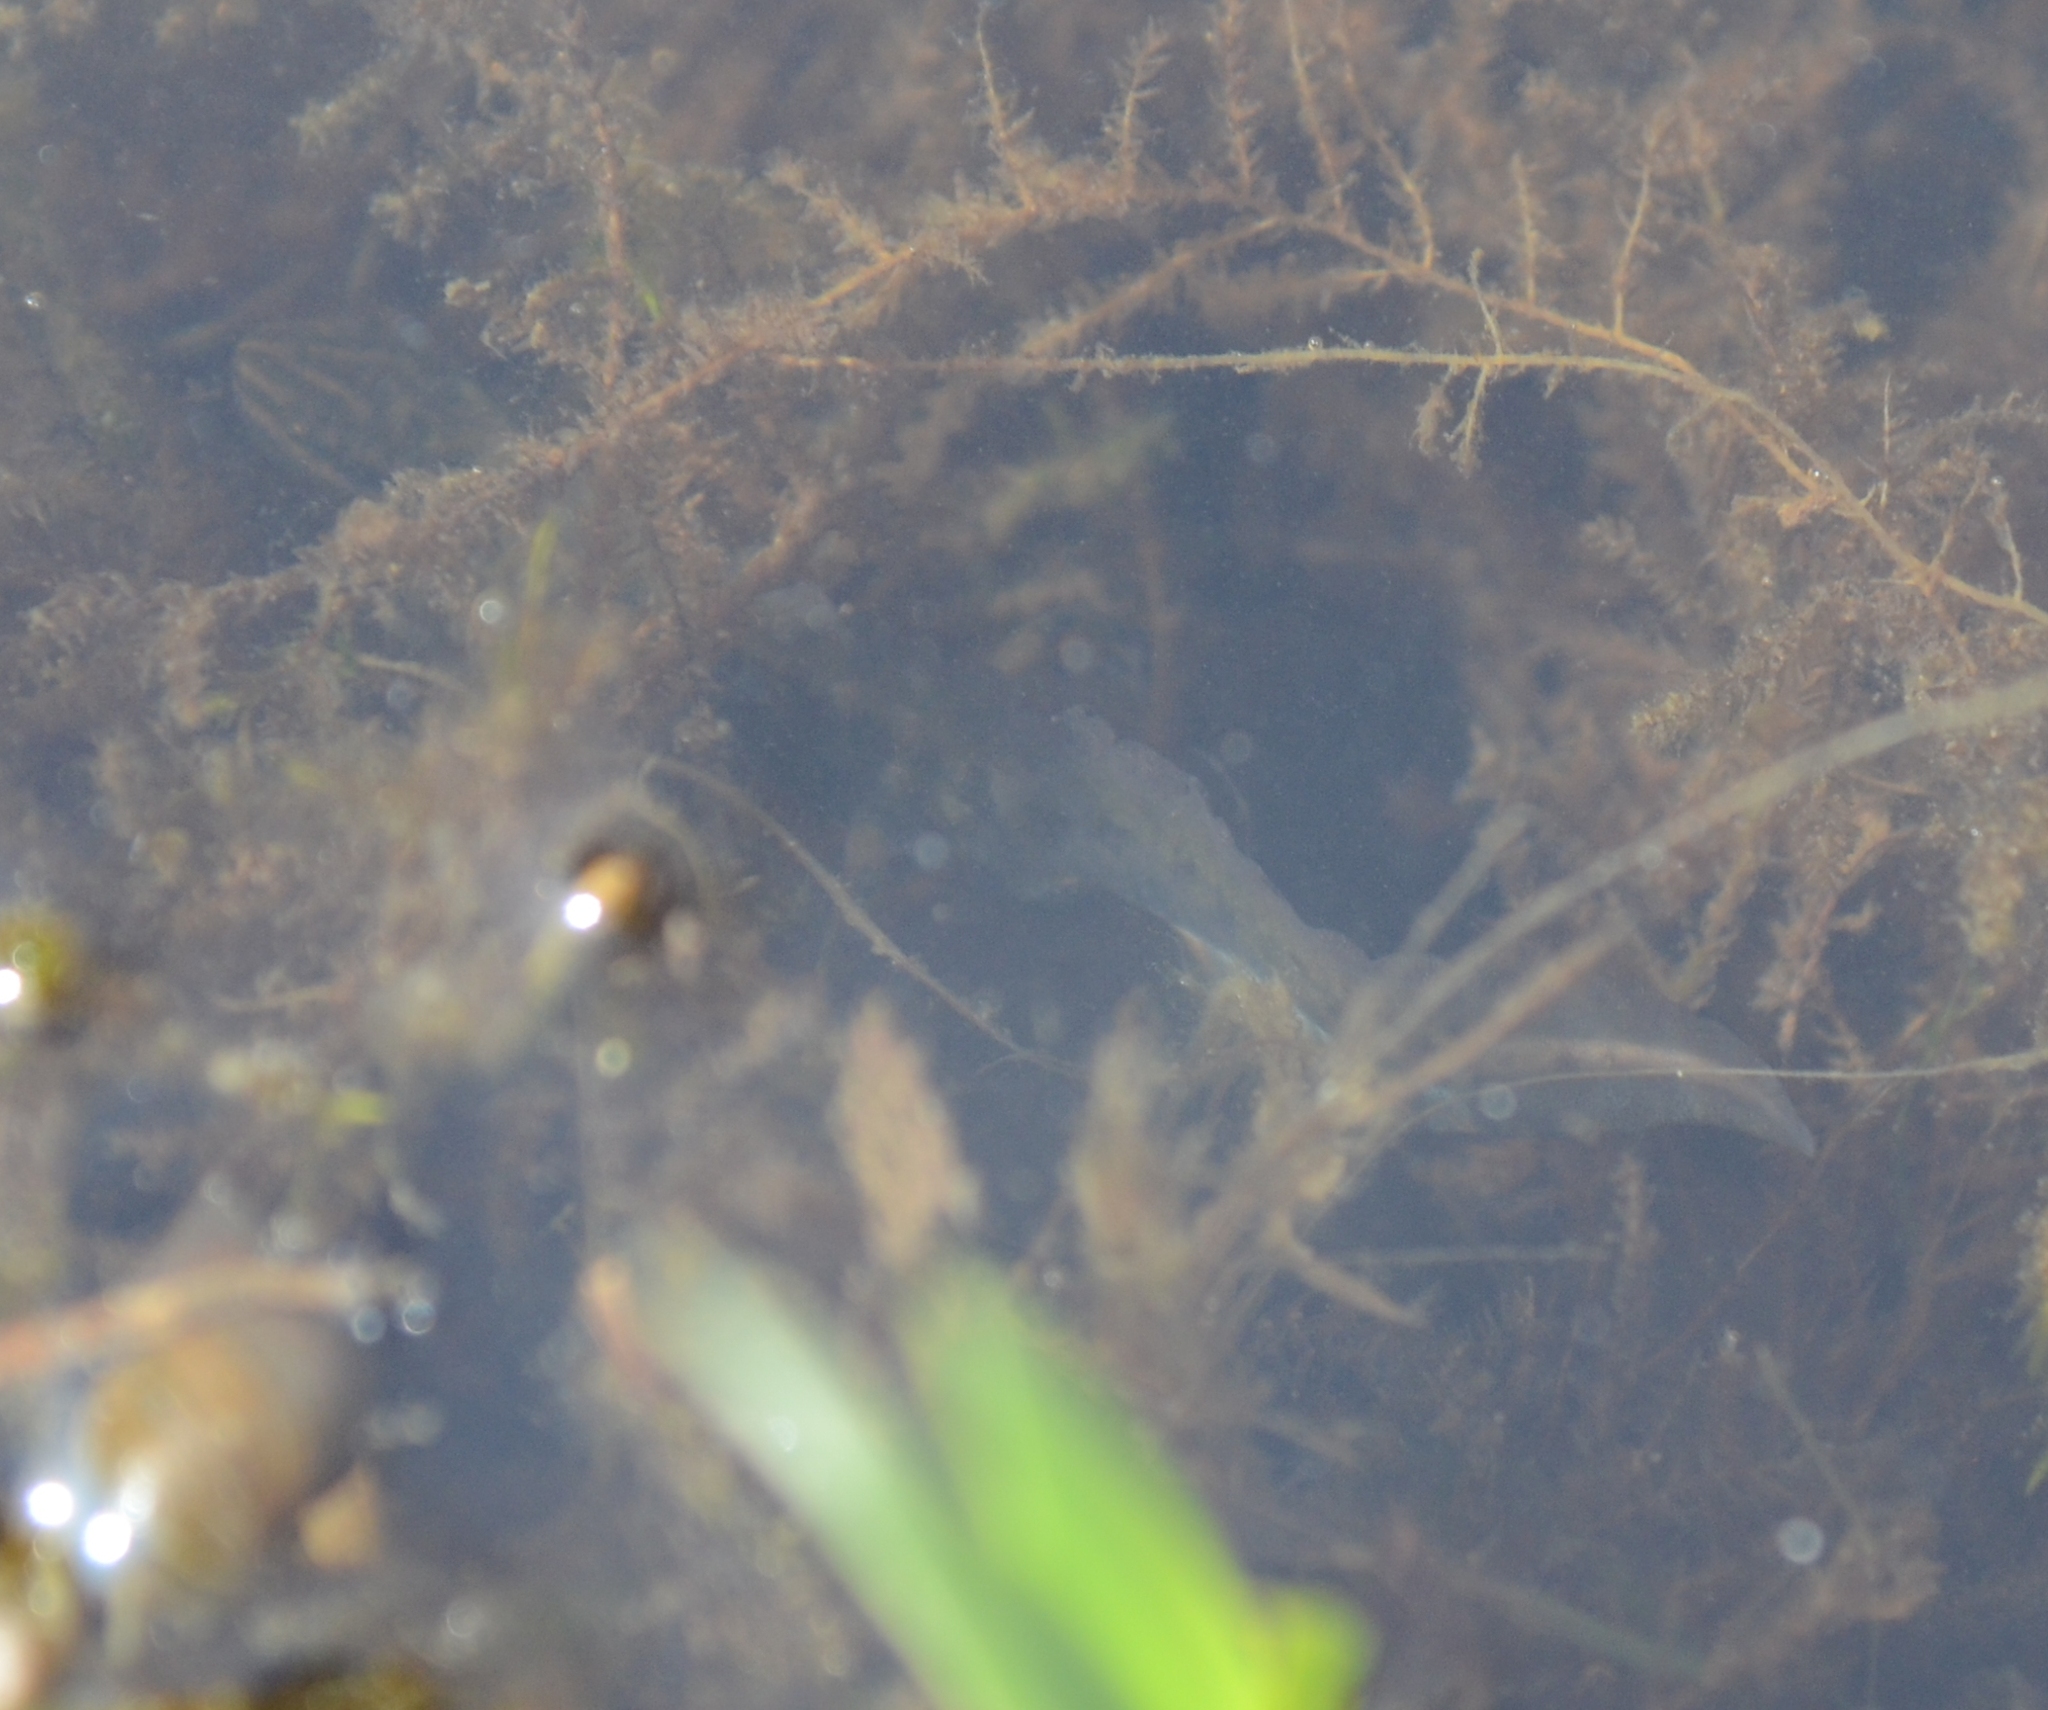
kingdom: Animalia
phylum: Chordata
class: Amphibia
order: Caudata
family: Salamandridae
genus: Lissotriton
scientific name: Lissotriton vulgaris
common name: Smooth newt
